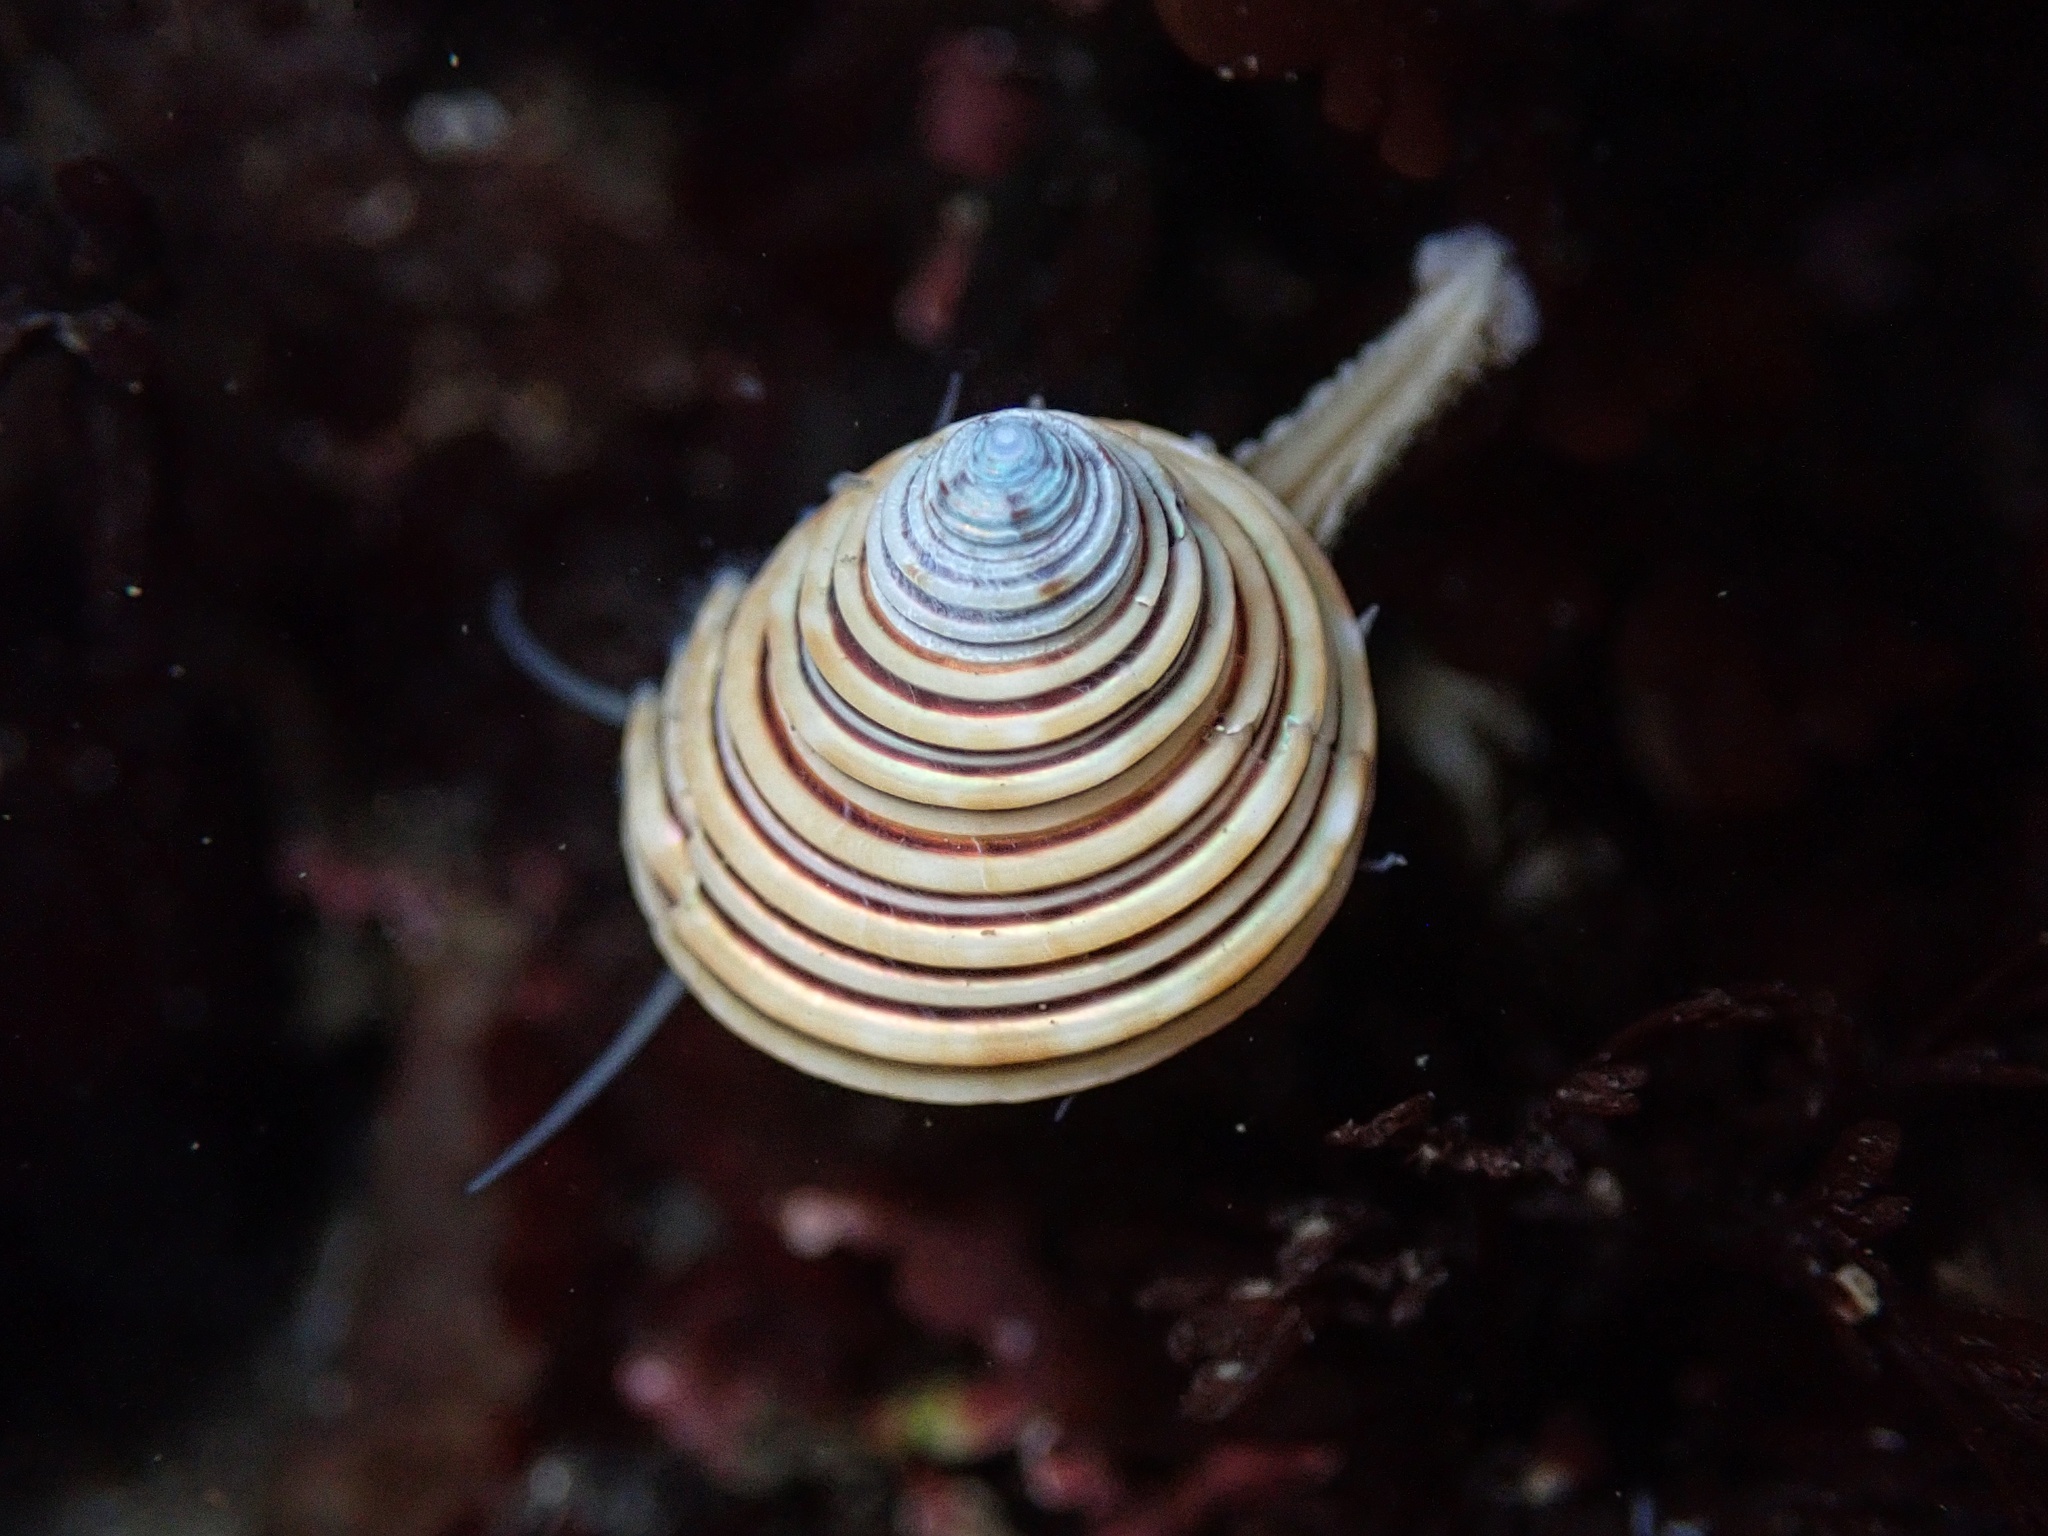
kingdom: Animalia
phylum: Mollusca
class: Gastropoda
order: Trochida
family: Calliostomatidae
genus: Calliostoma
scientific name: Calliostoma canaliculatum
